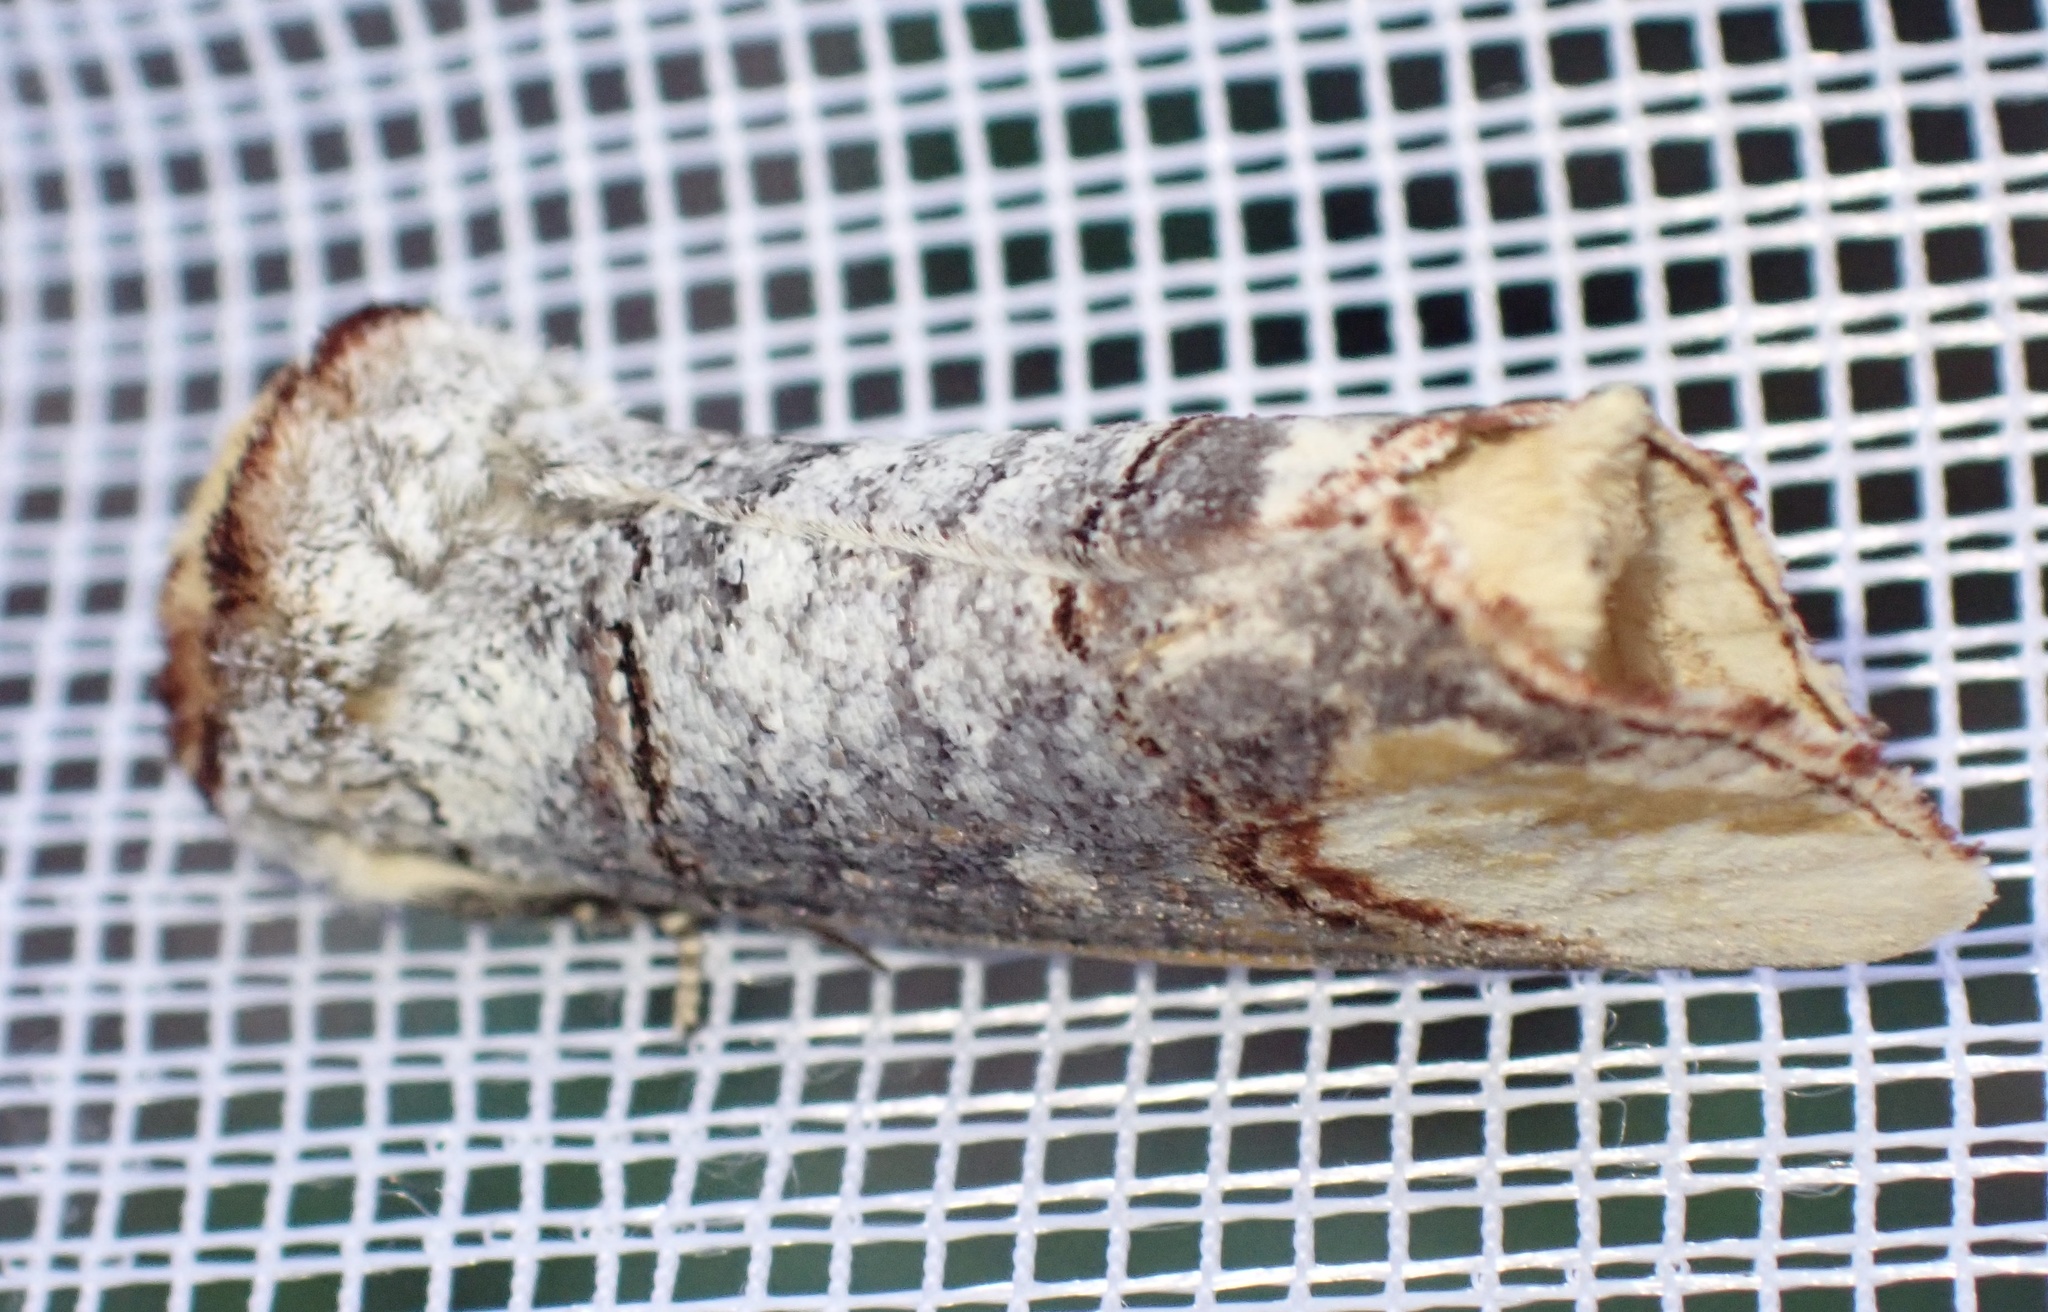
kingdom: Animalia
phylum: Arthropoda
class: Insecta
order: Lepidoptera
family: Notodontidae
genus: Phalera
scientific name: Phalera bucephala
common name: Buff-tip
